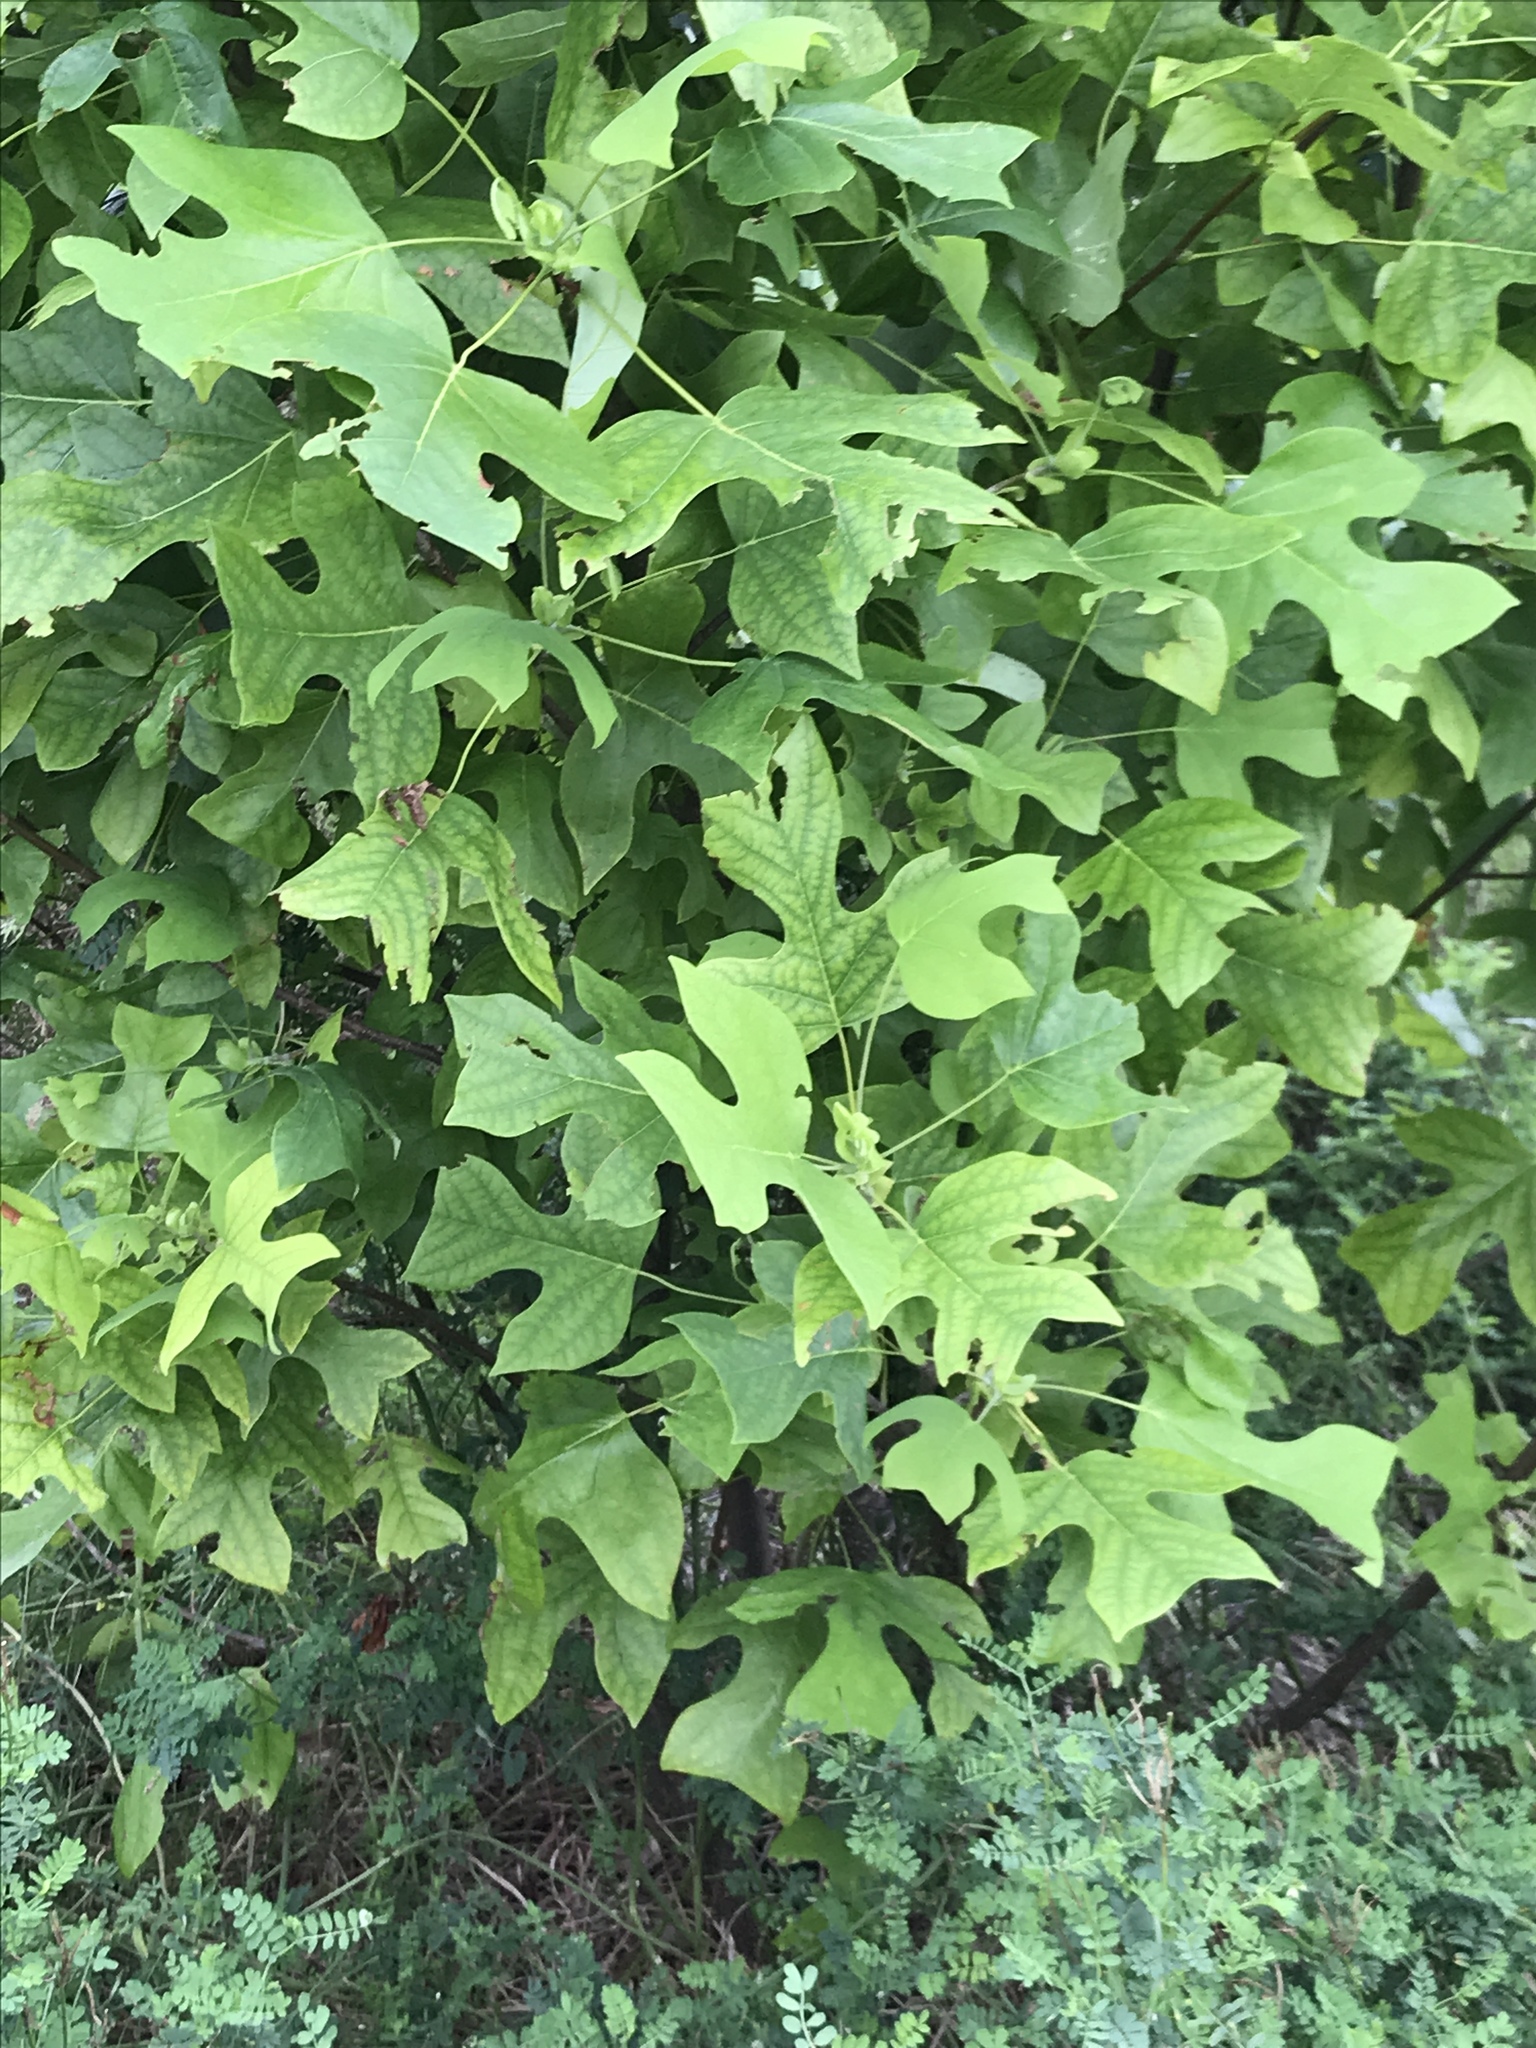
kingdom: Plantae
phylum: Tracheophyta
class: Magnoliopsida
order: Magnoliales
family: Magnoliaceae
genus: Liriodendron
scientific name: Liriodendron tulipifera
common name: Tulip tree
